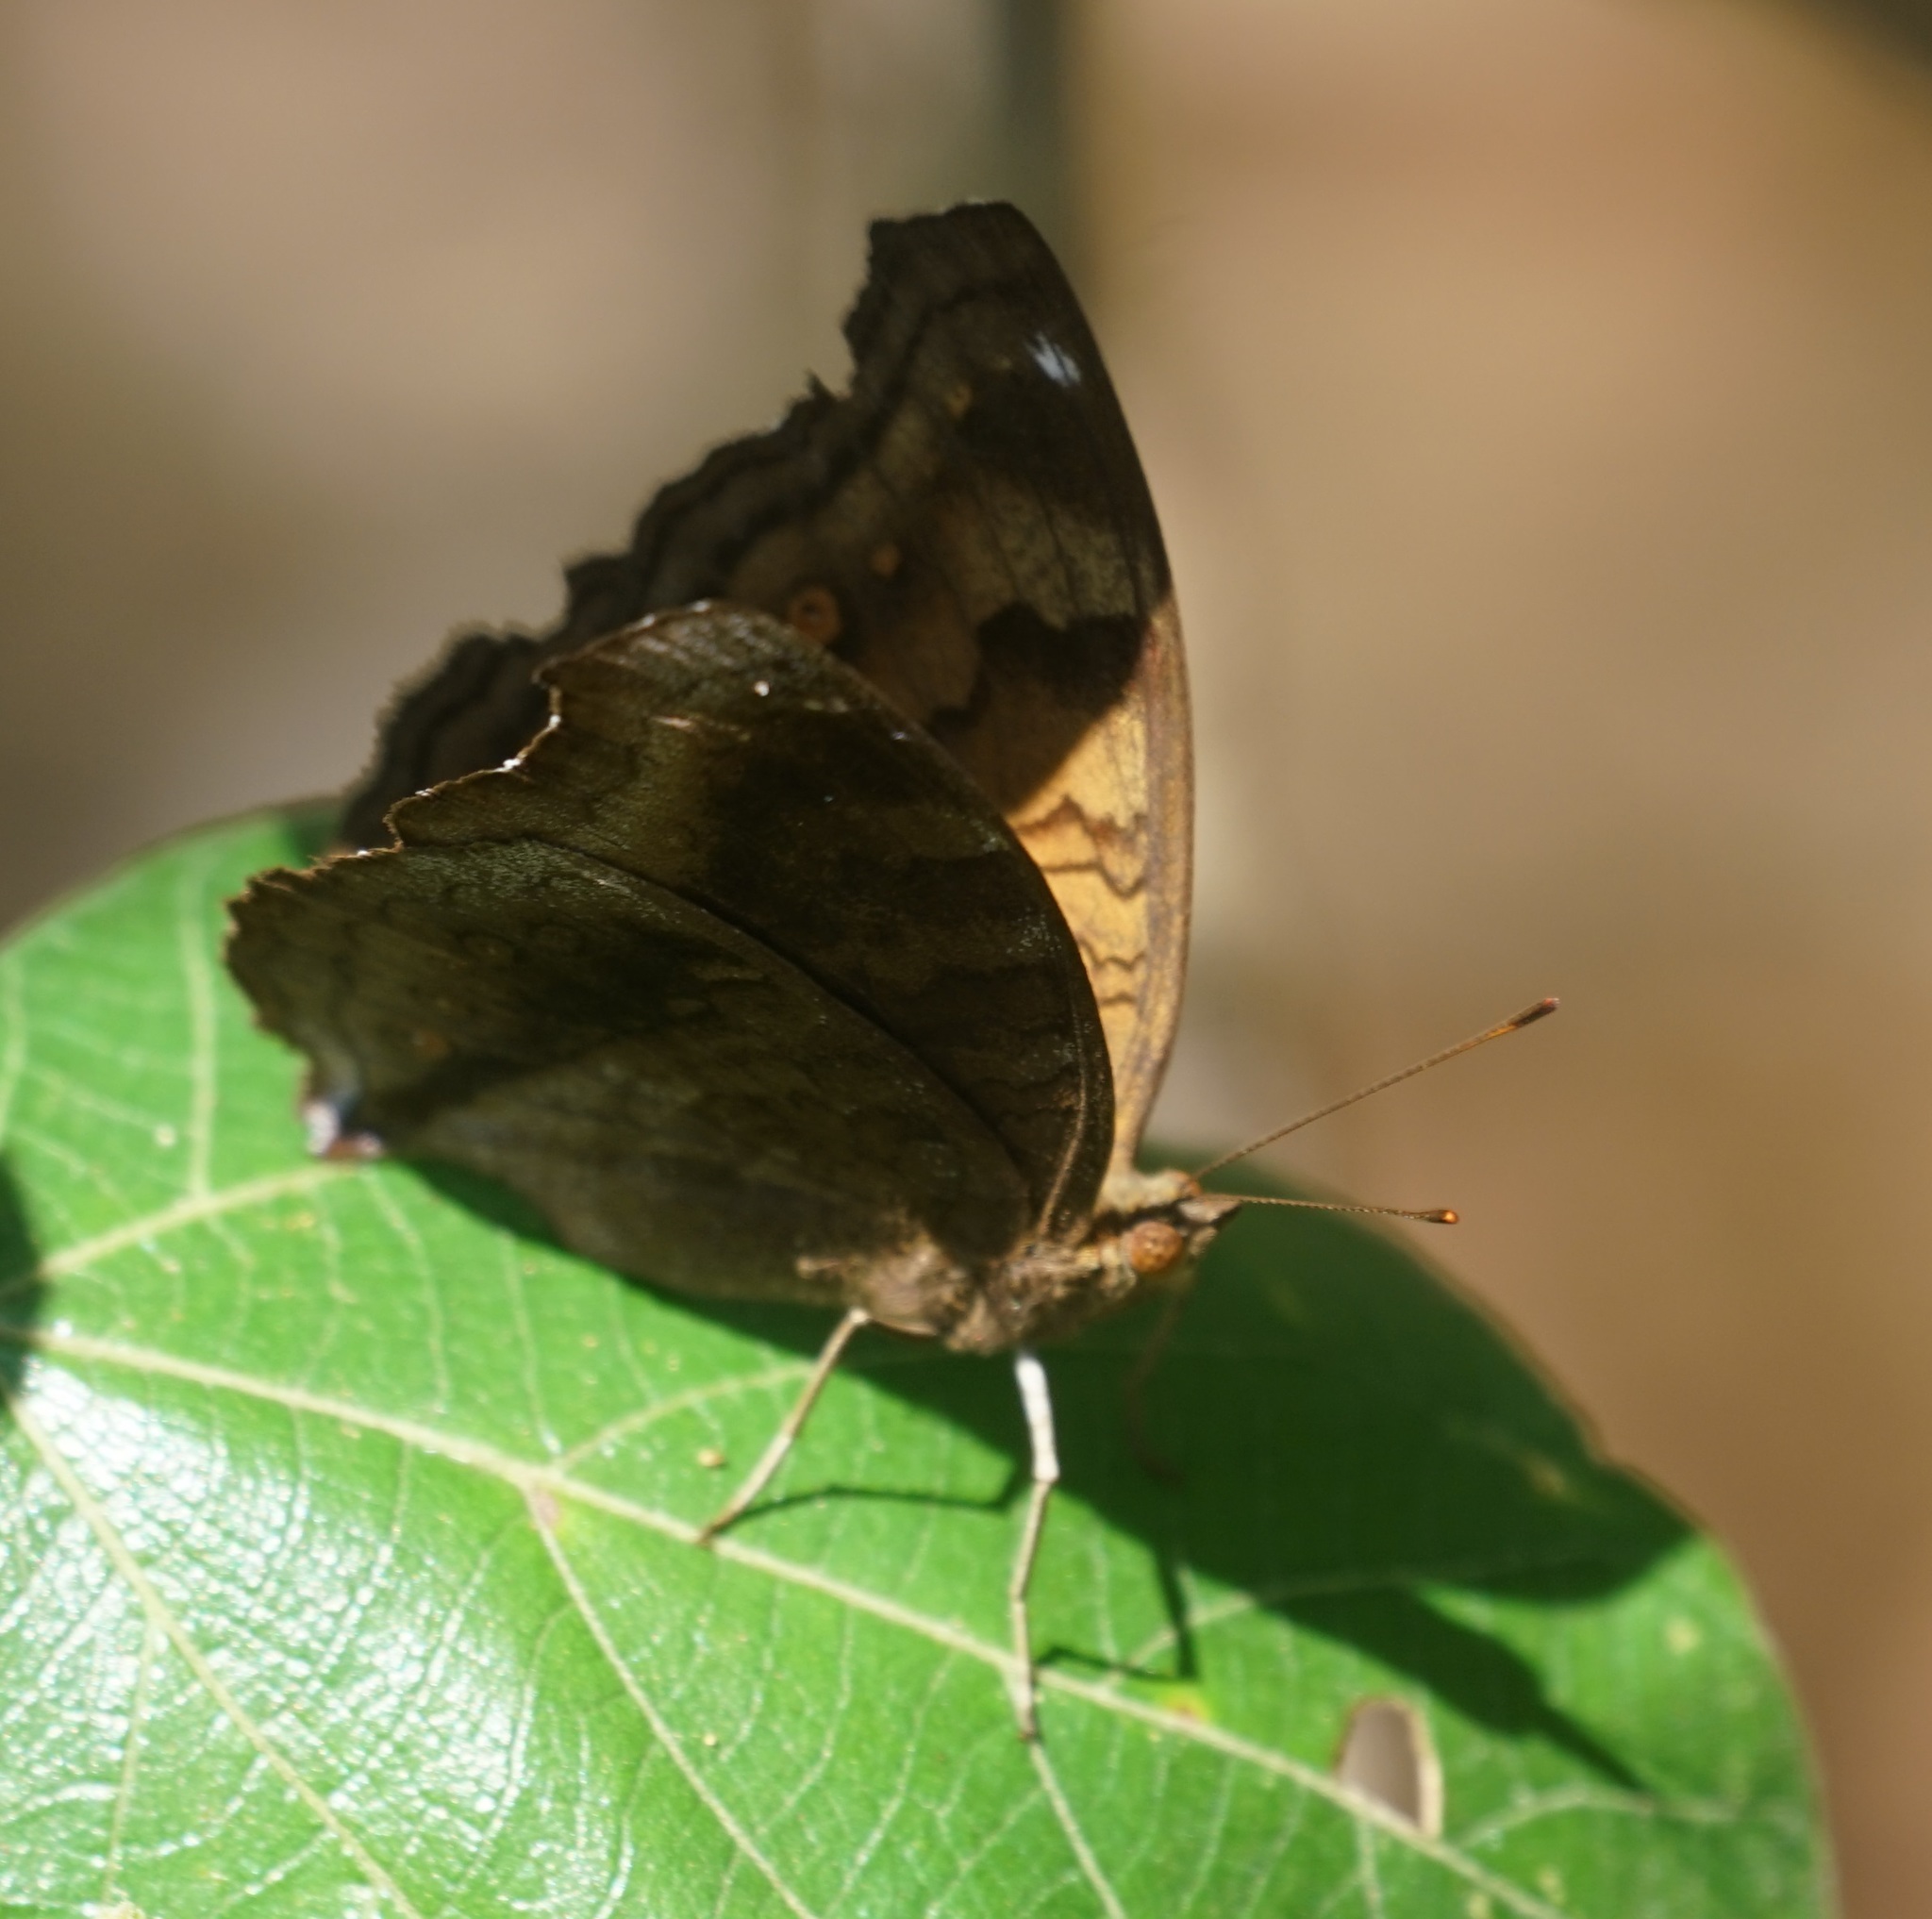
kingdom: Animalia
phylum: Arthropoda
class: Insecta
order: Lepidoptera
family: Nymphalidae
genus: Junonia
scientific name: Junonia hedonia
